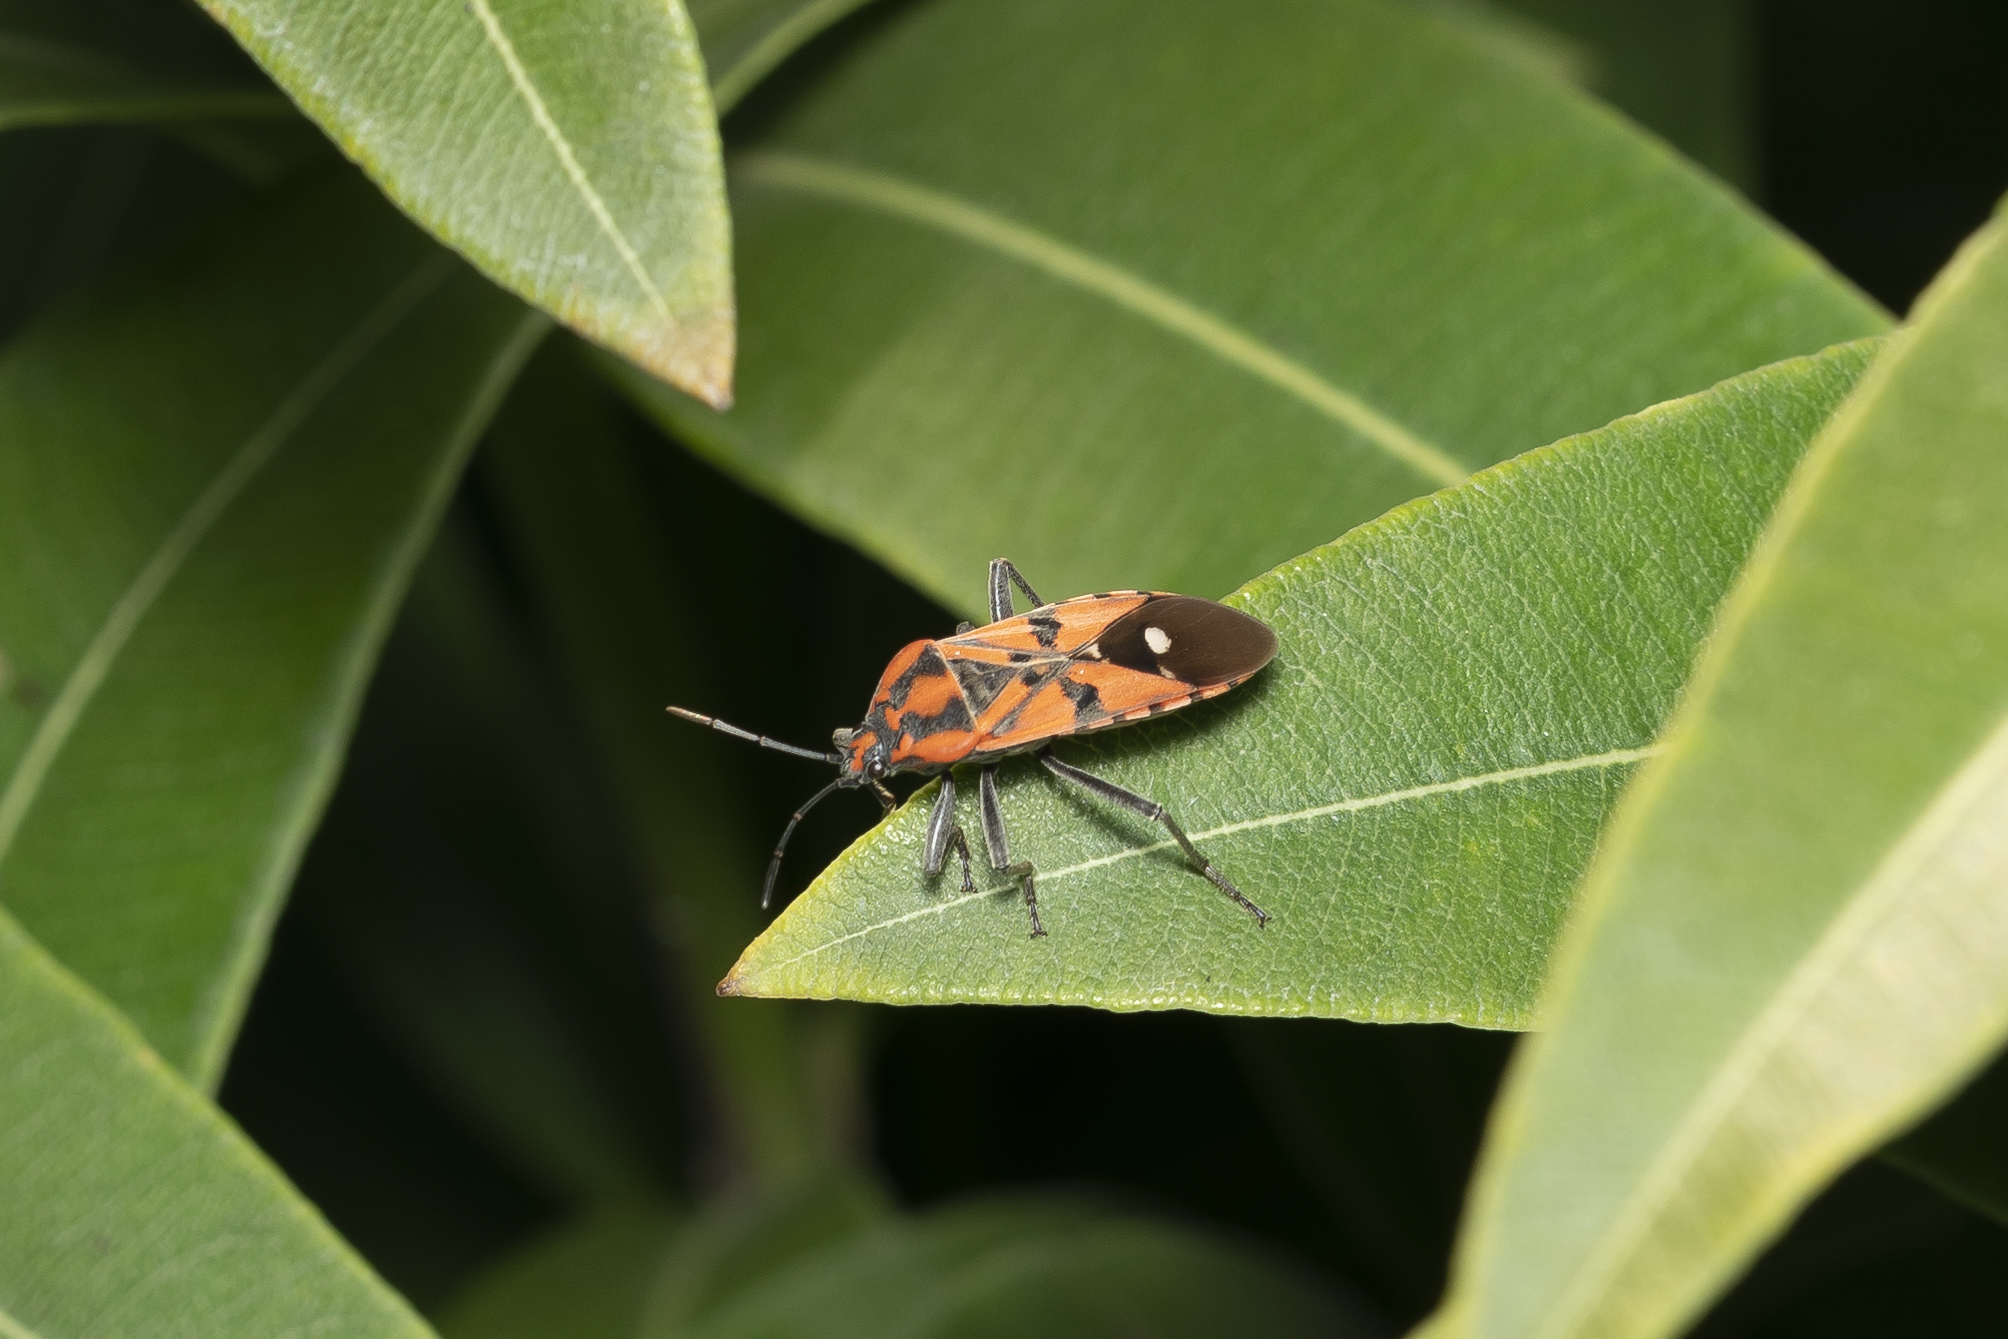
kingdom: Animalia
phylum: Arthropoda
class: Insecta
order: Hemiptera
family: Lygaeidae
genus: Spilostethus
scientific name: Spilostethus pandurus
